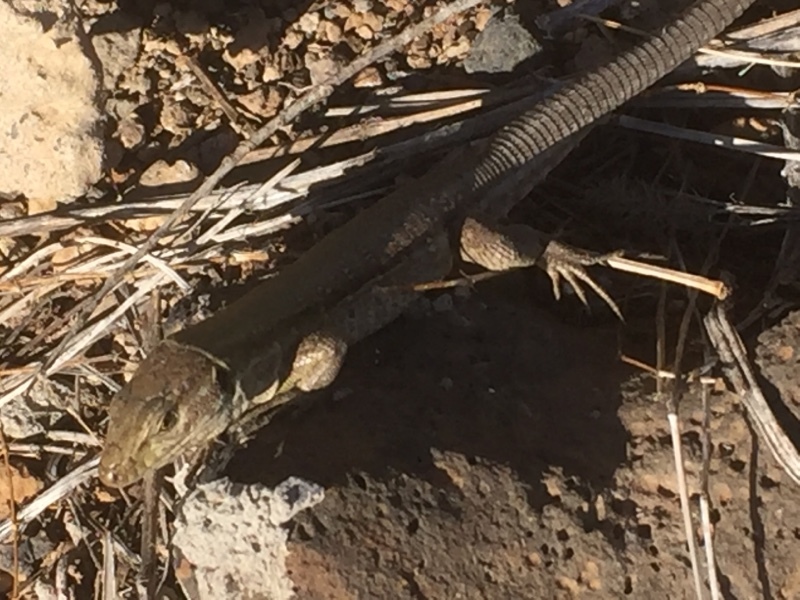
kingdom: Animalia
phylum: Chordata
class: Squamata
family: Lacertidae
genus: Gallotia
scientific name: Gallotia galloti
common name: Gallot's lizard
